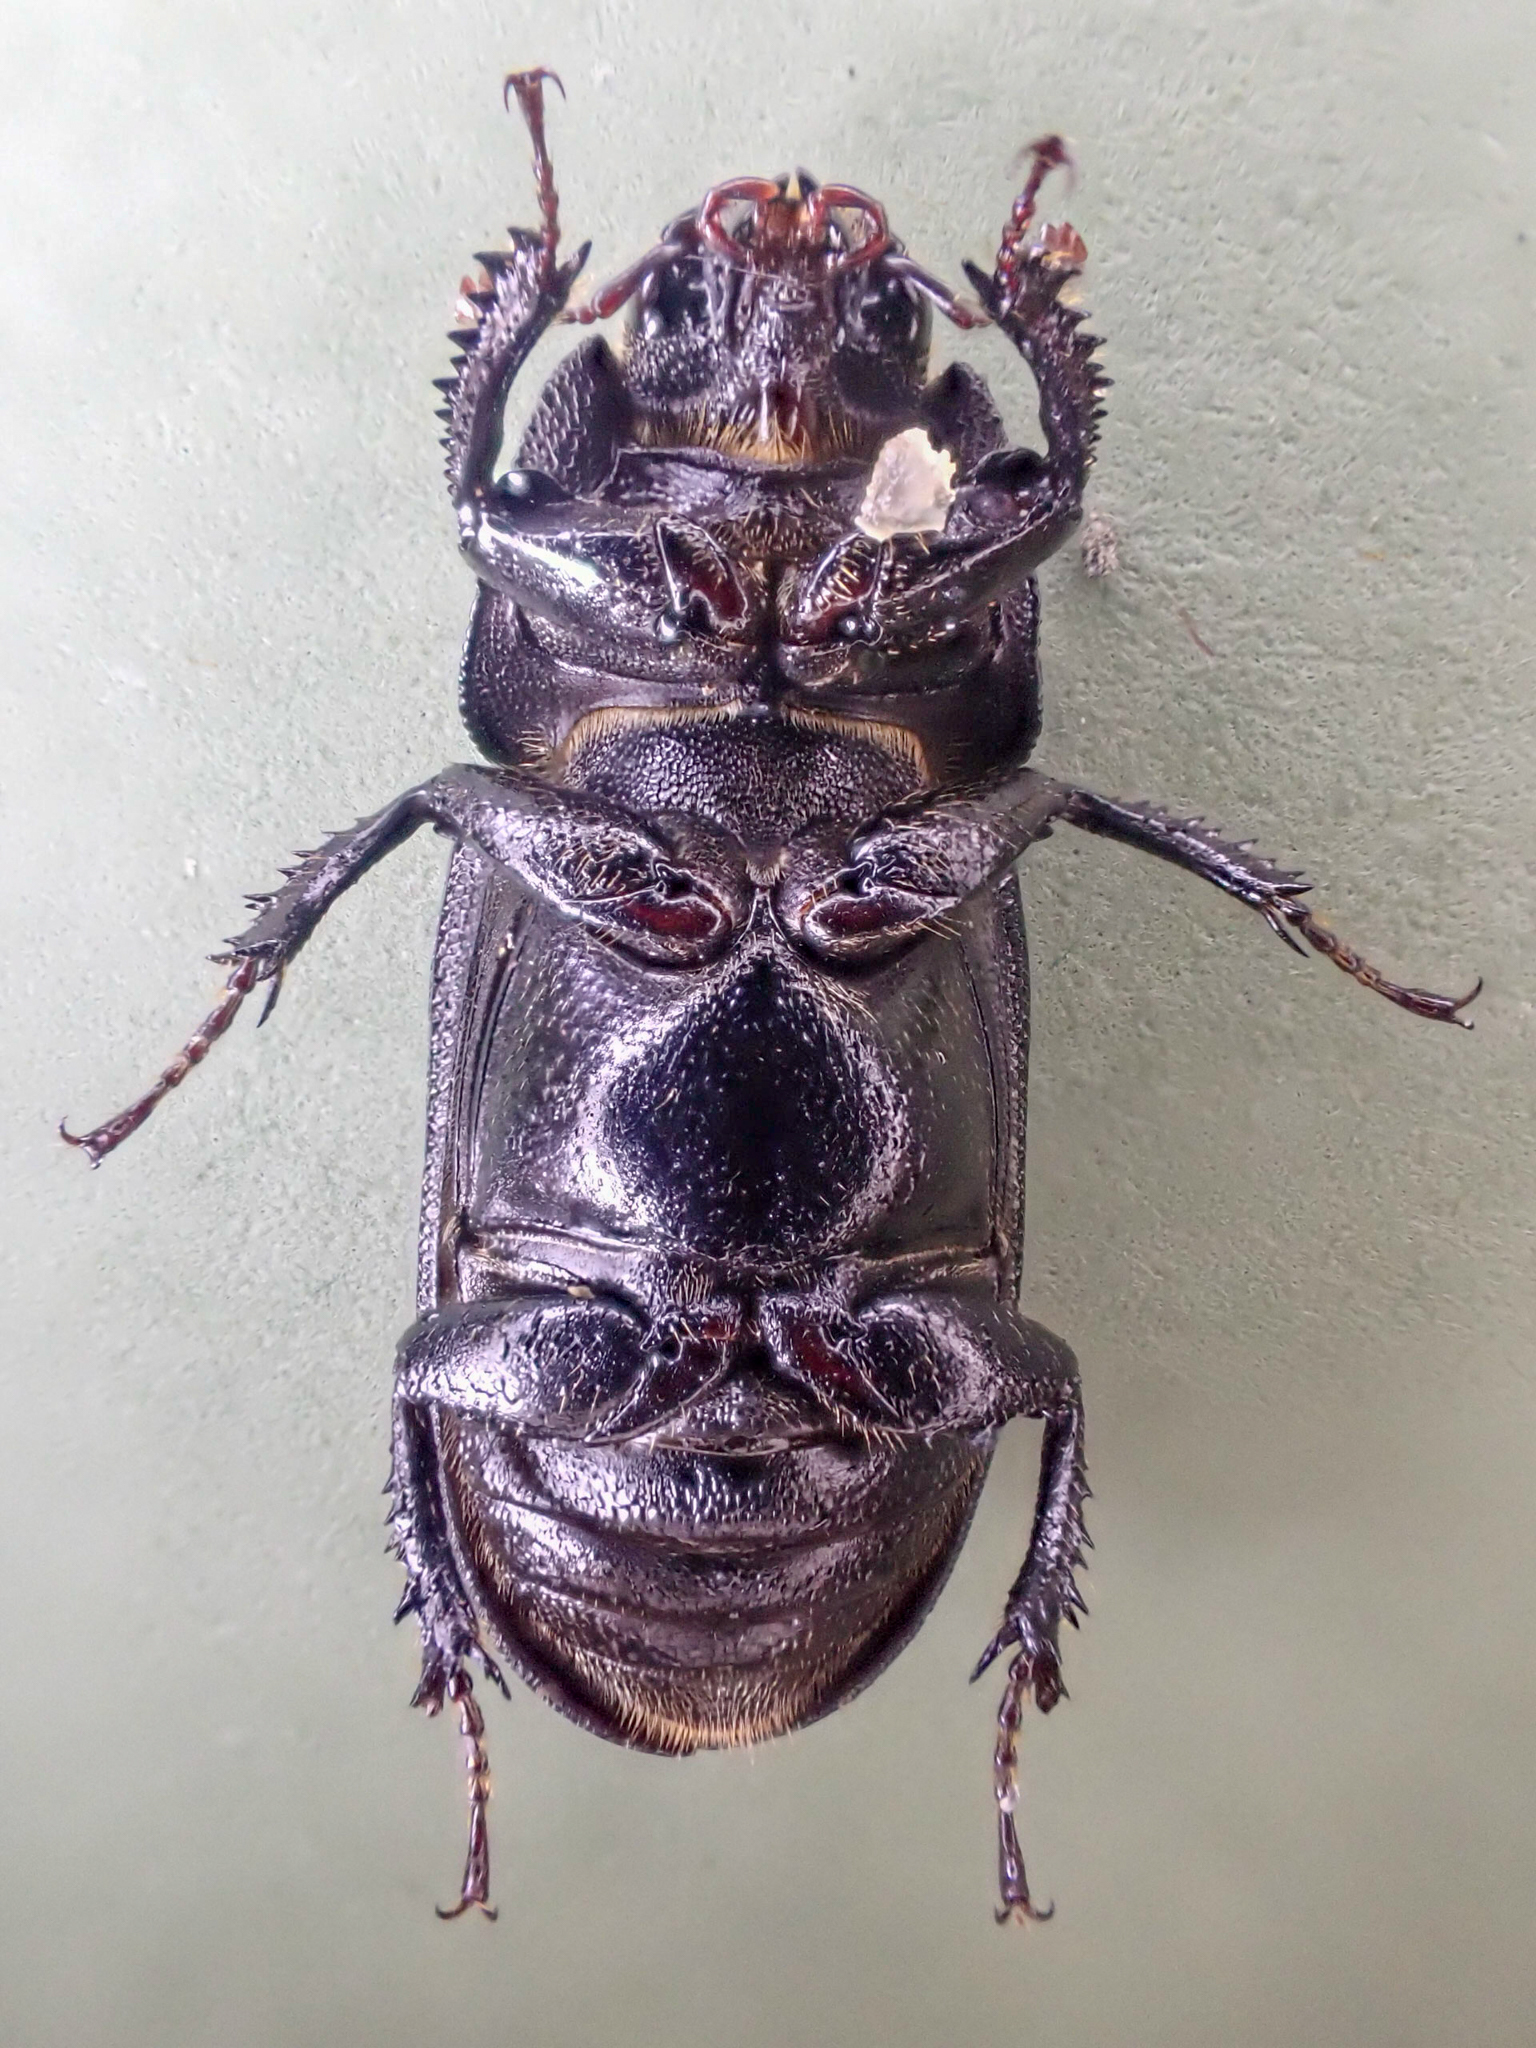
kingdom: Animalia
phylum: Arthropoda
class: Insecta
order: Coleoptera
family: Lucanidae
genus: Sinodendron
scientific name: Sinodendron rugosum
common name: Rugose stag beelte
